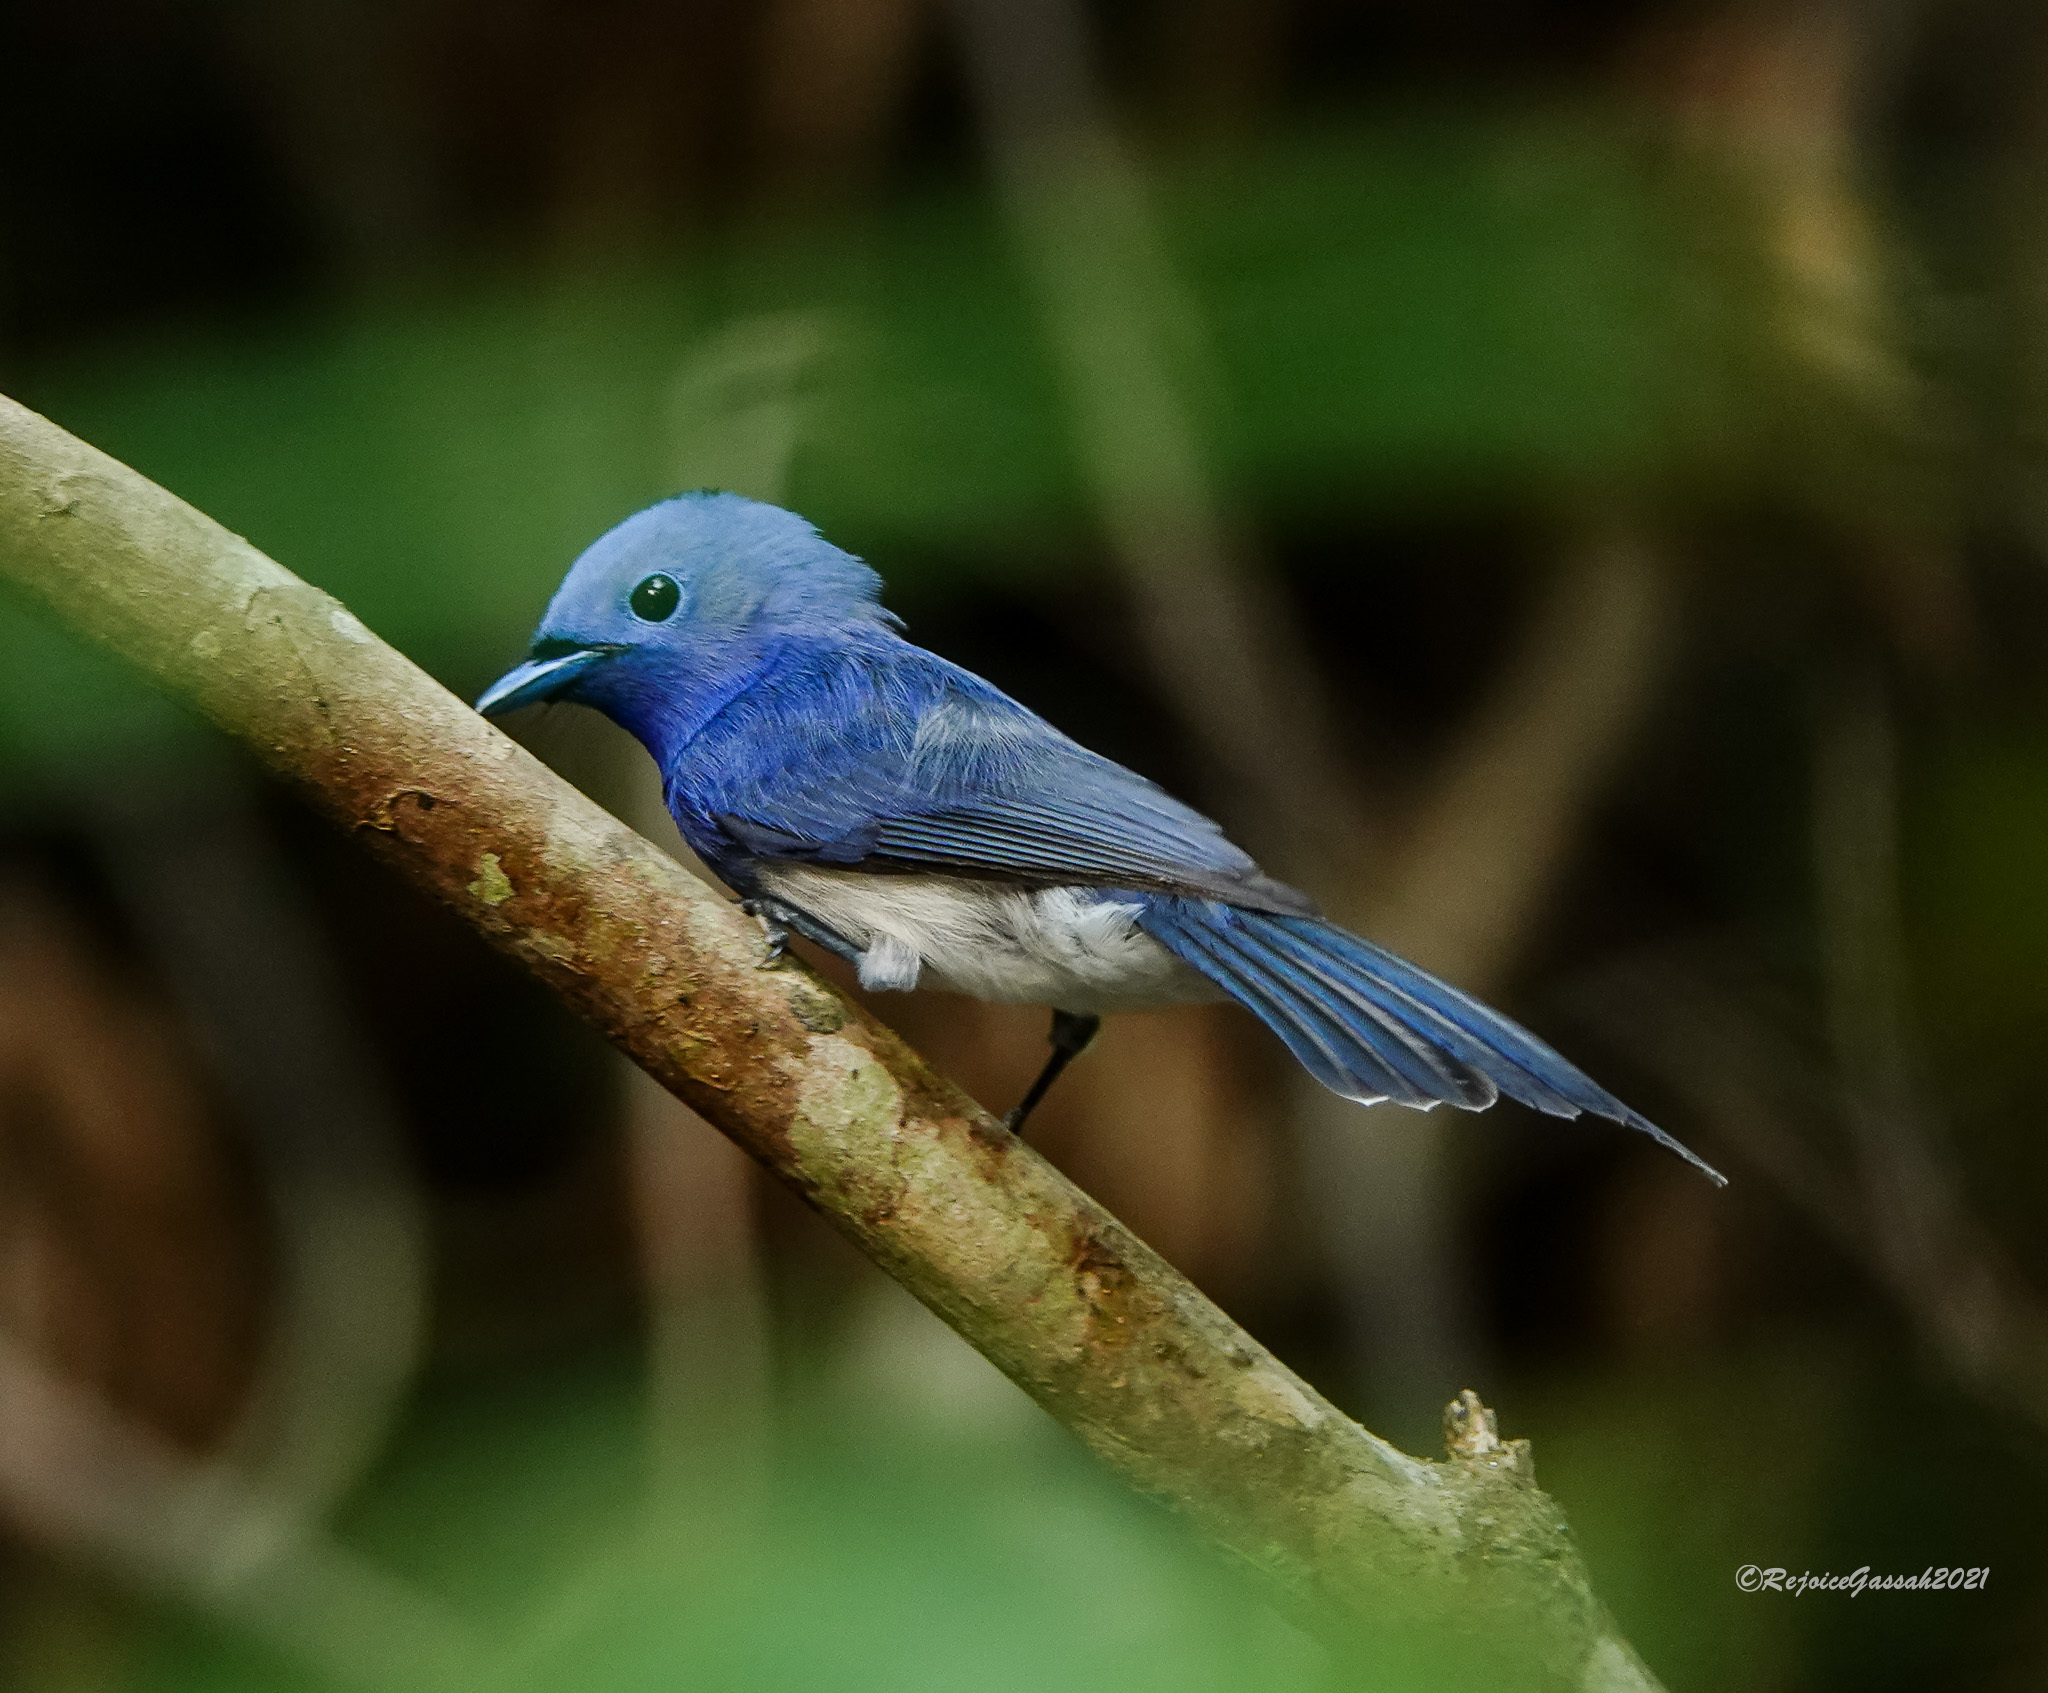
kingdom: Animalia
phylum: Chordata
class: Aves
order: Passeriformes
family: Monarchidae
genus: Hypothymis
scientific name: Hypothymis azurea
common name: Black-naped monarch
